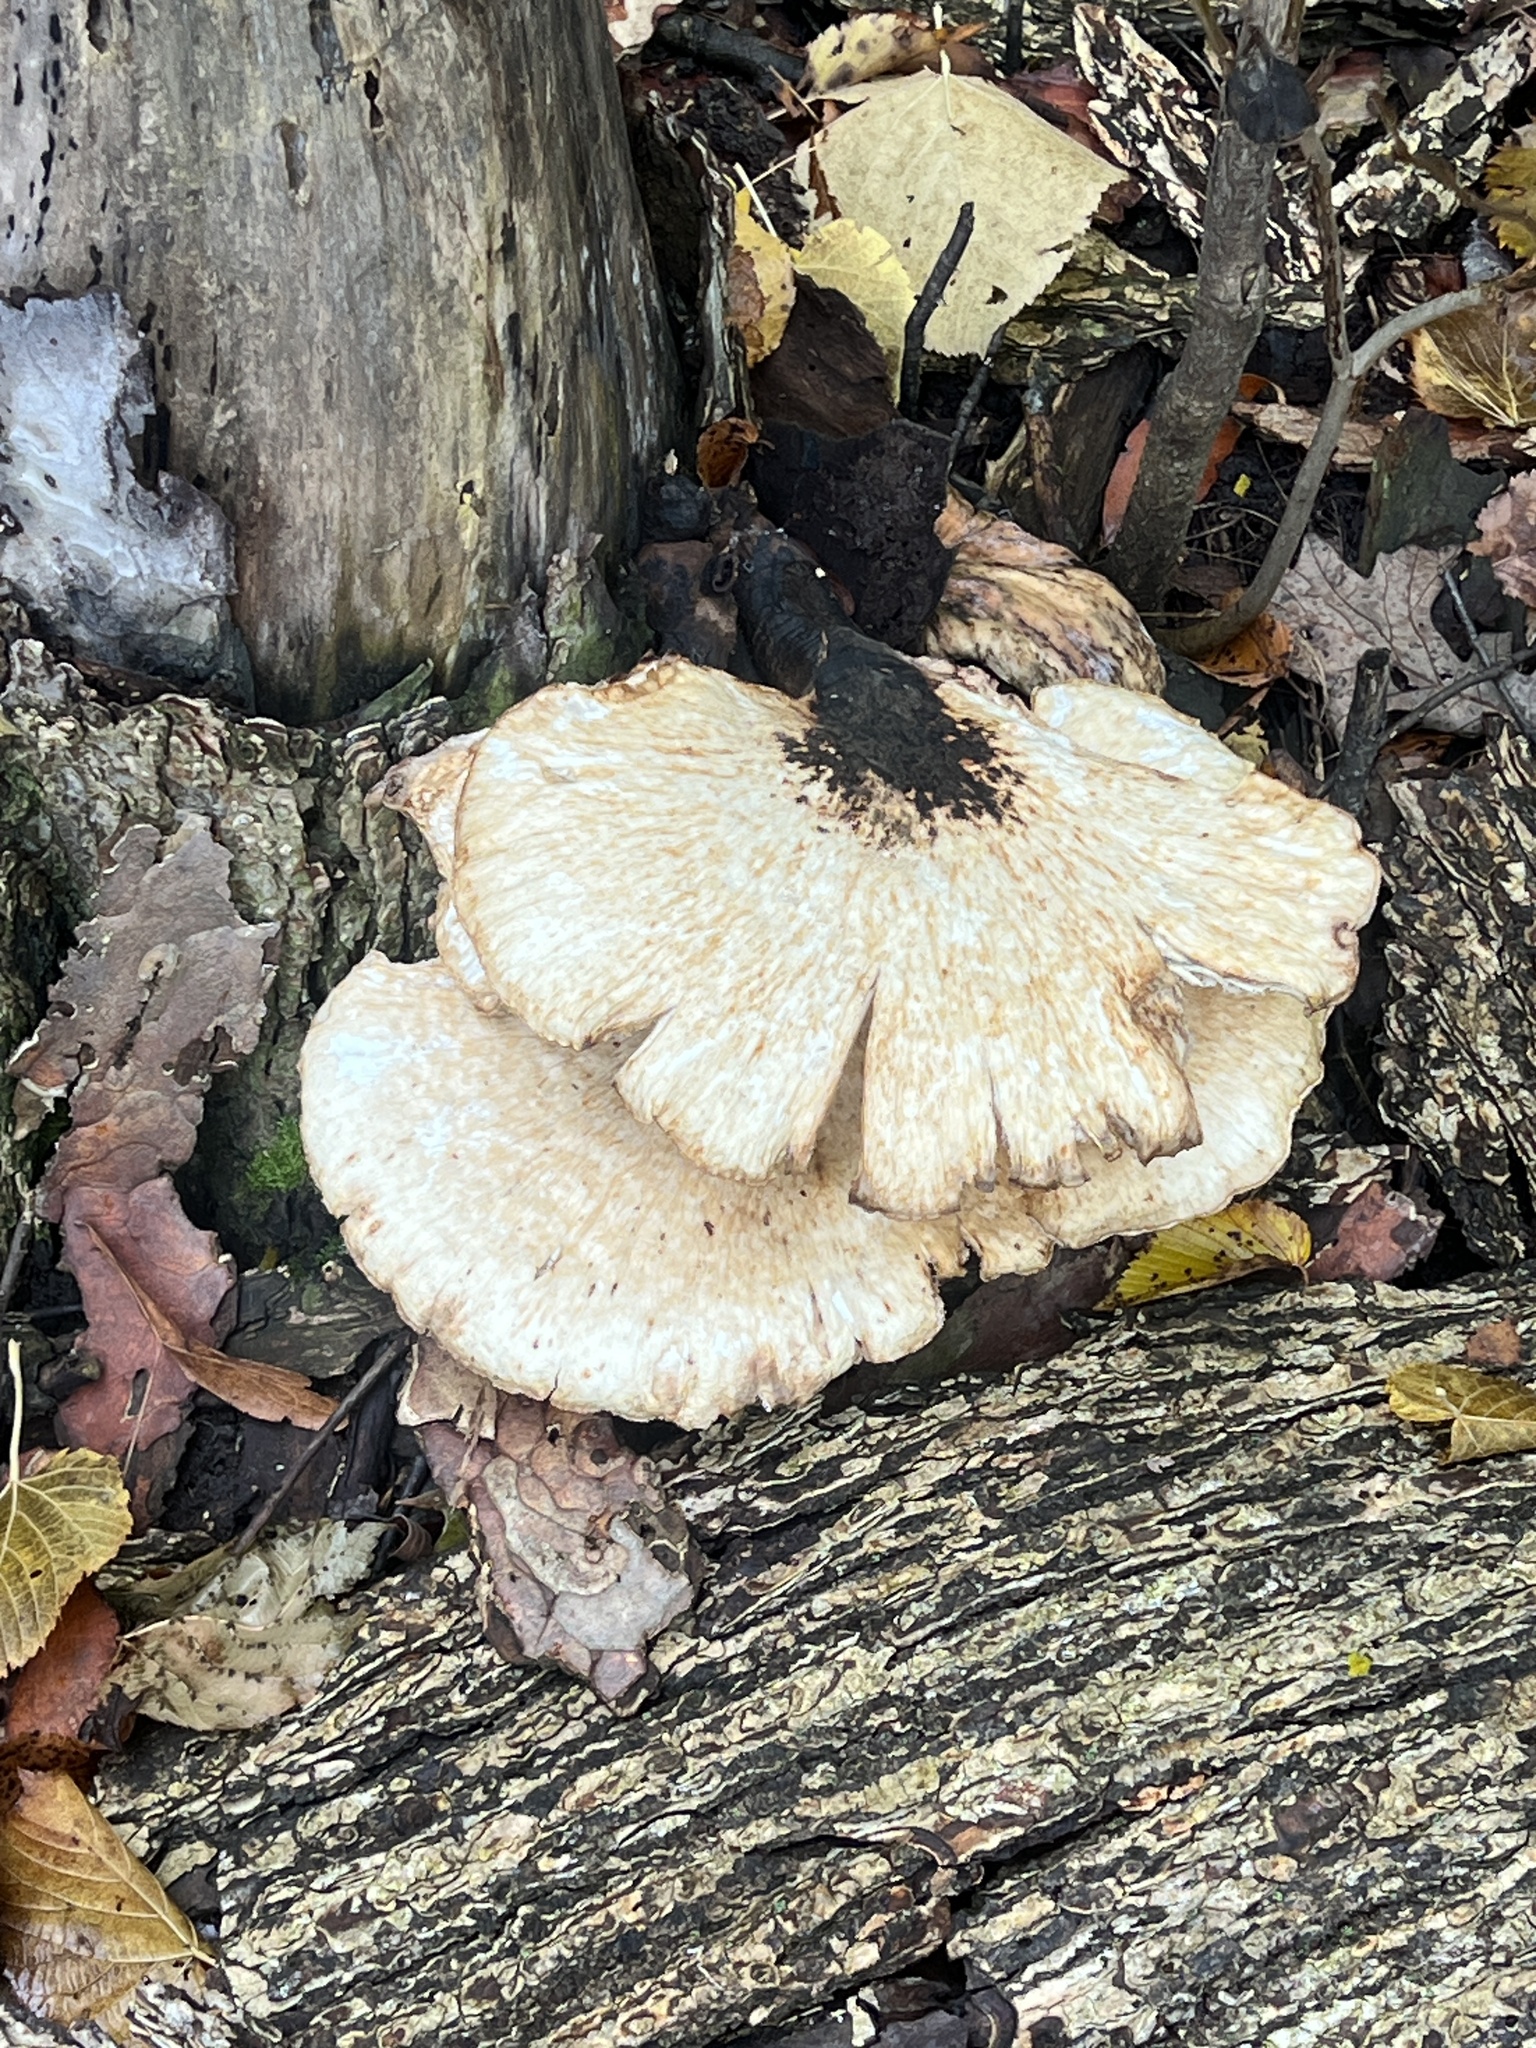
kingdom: Fungi
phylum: Basidiomycota
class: Agaricomycetes
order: Polyporales
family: Polyporaceae
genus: Cerioporus
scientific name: Cerioporus squamosus
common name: Dryad's saddle
